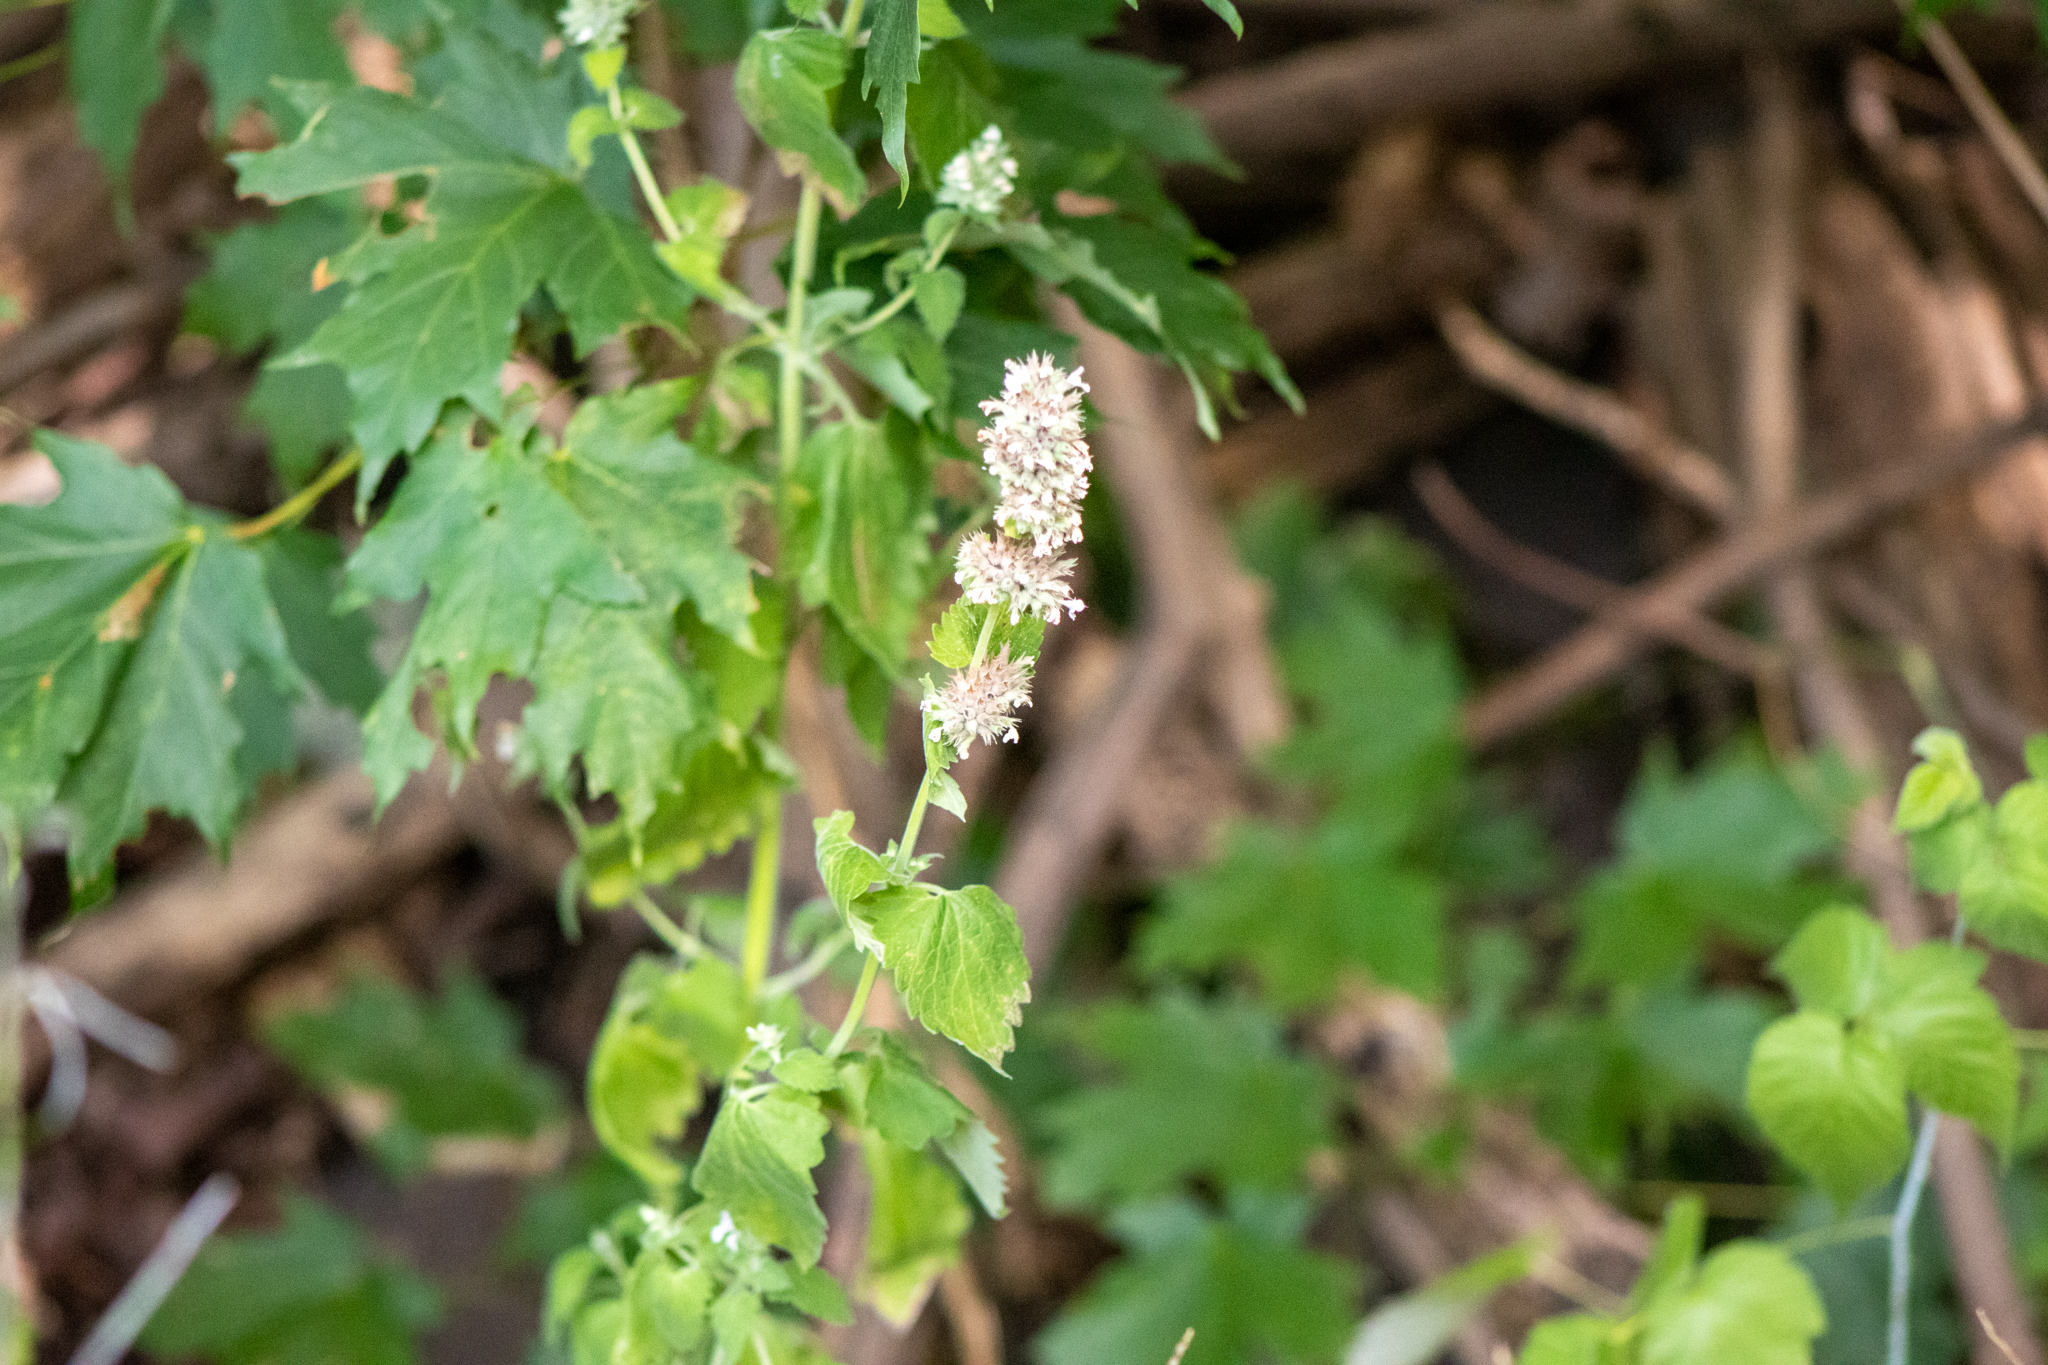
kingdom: Plantae
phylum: Tracheophyta
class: Magnoliopsida
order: Lamiales
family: Lamiaceae
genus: Nepeta
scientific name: Nepeta cataria
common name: Catnip
